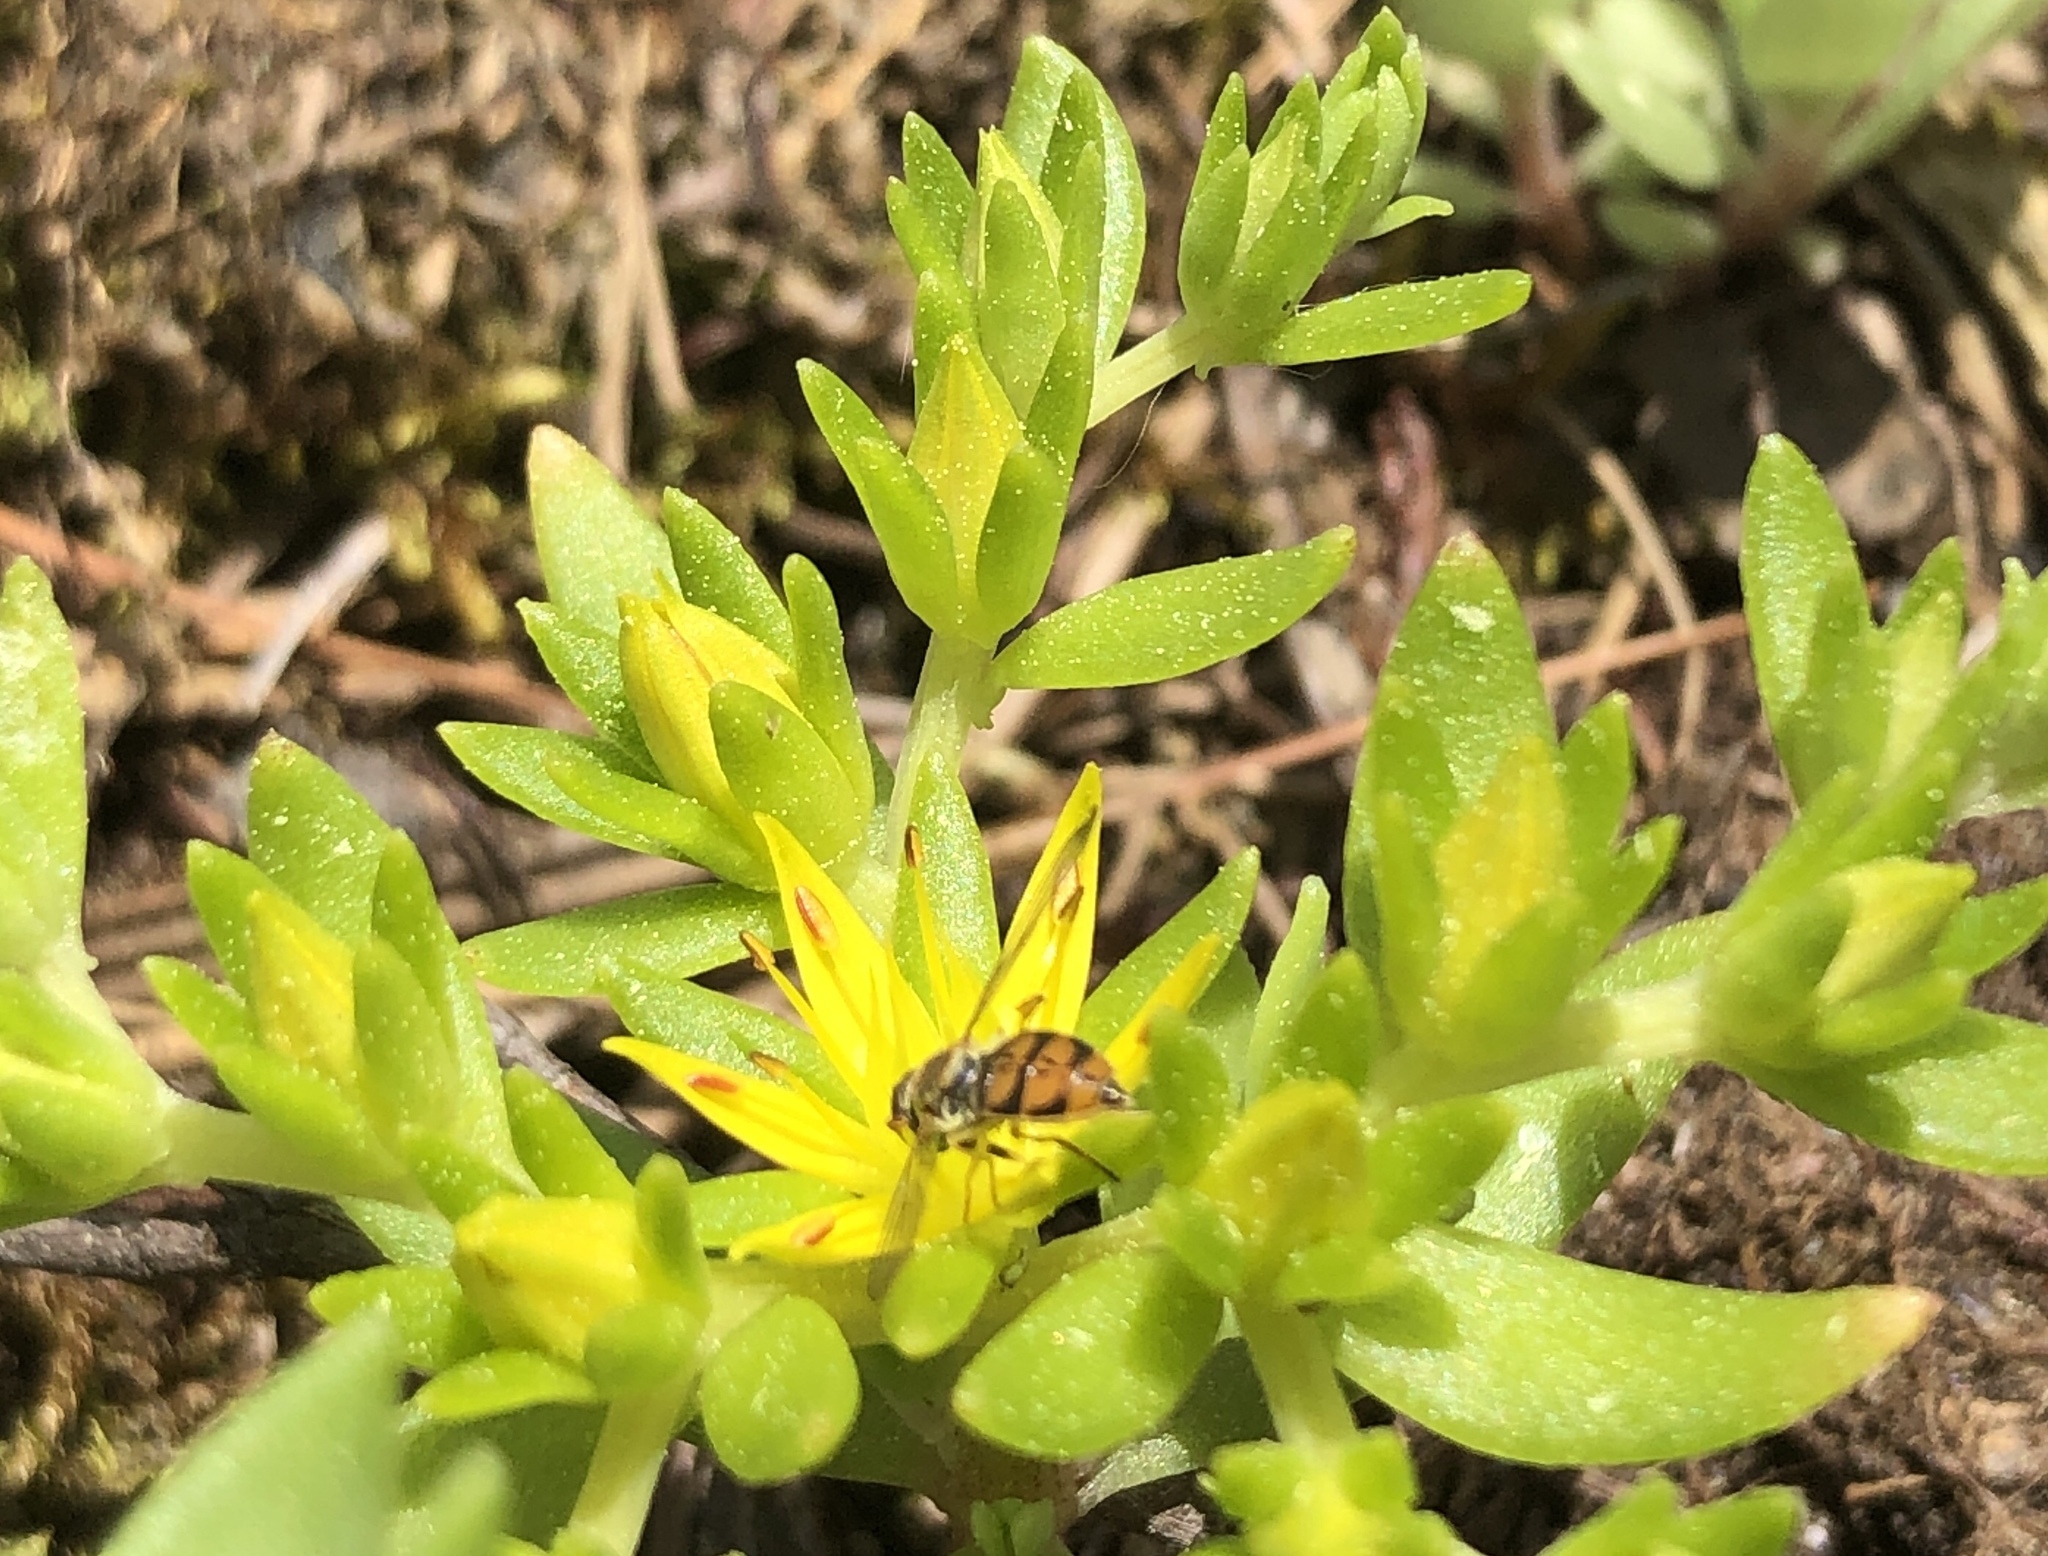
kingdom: Animalia
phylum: Arthropoda
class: Insecta
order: Diptera
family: Syrphidae
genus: Toxomerus
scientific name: Toxomerus marginatus
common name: Syrphid fly
